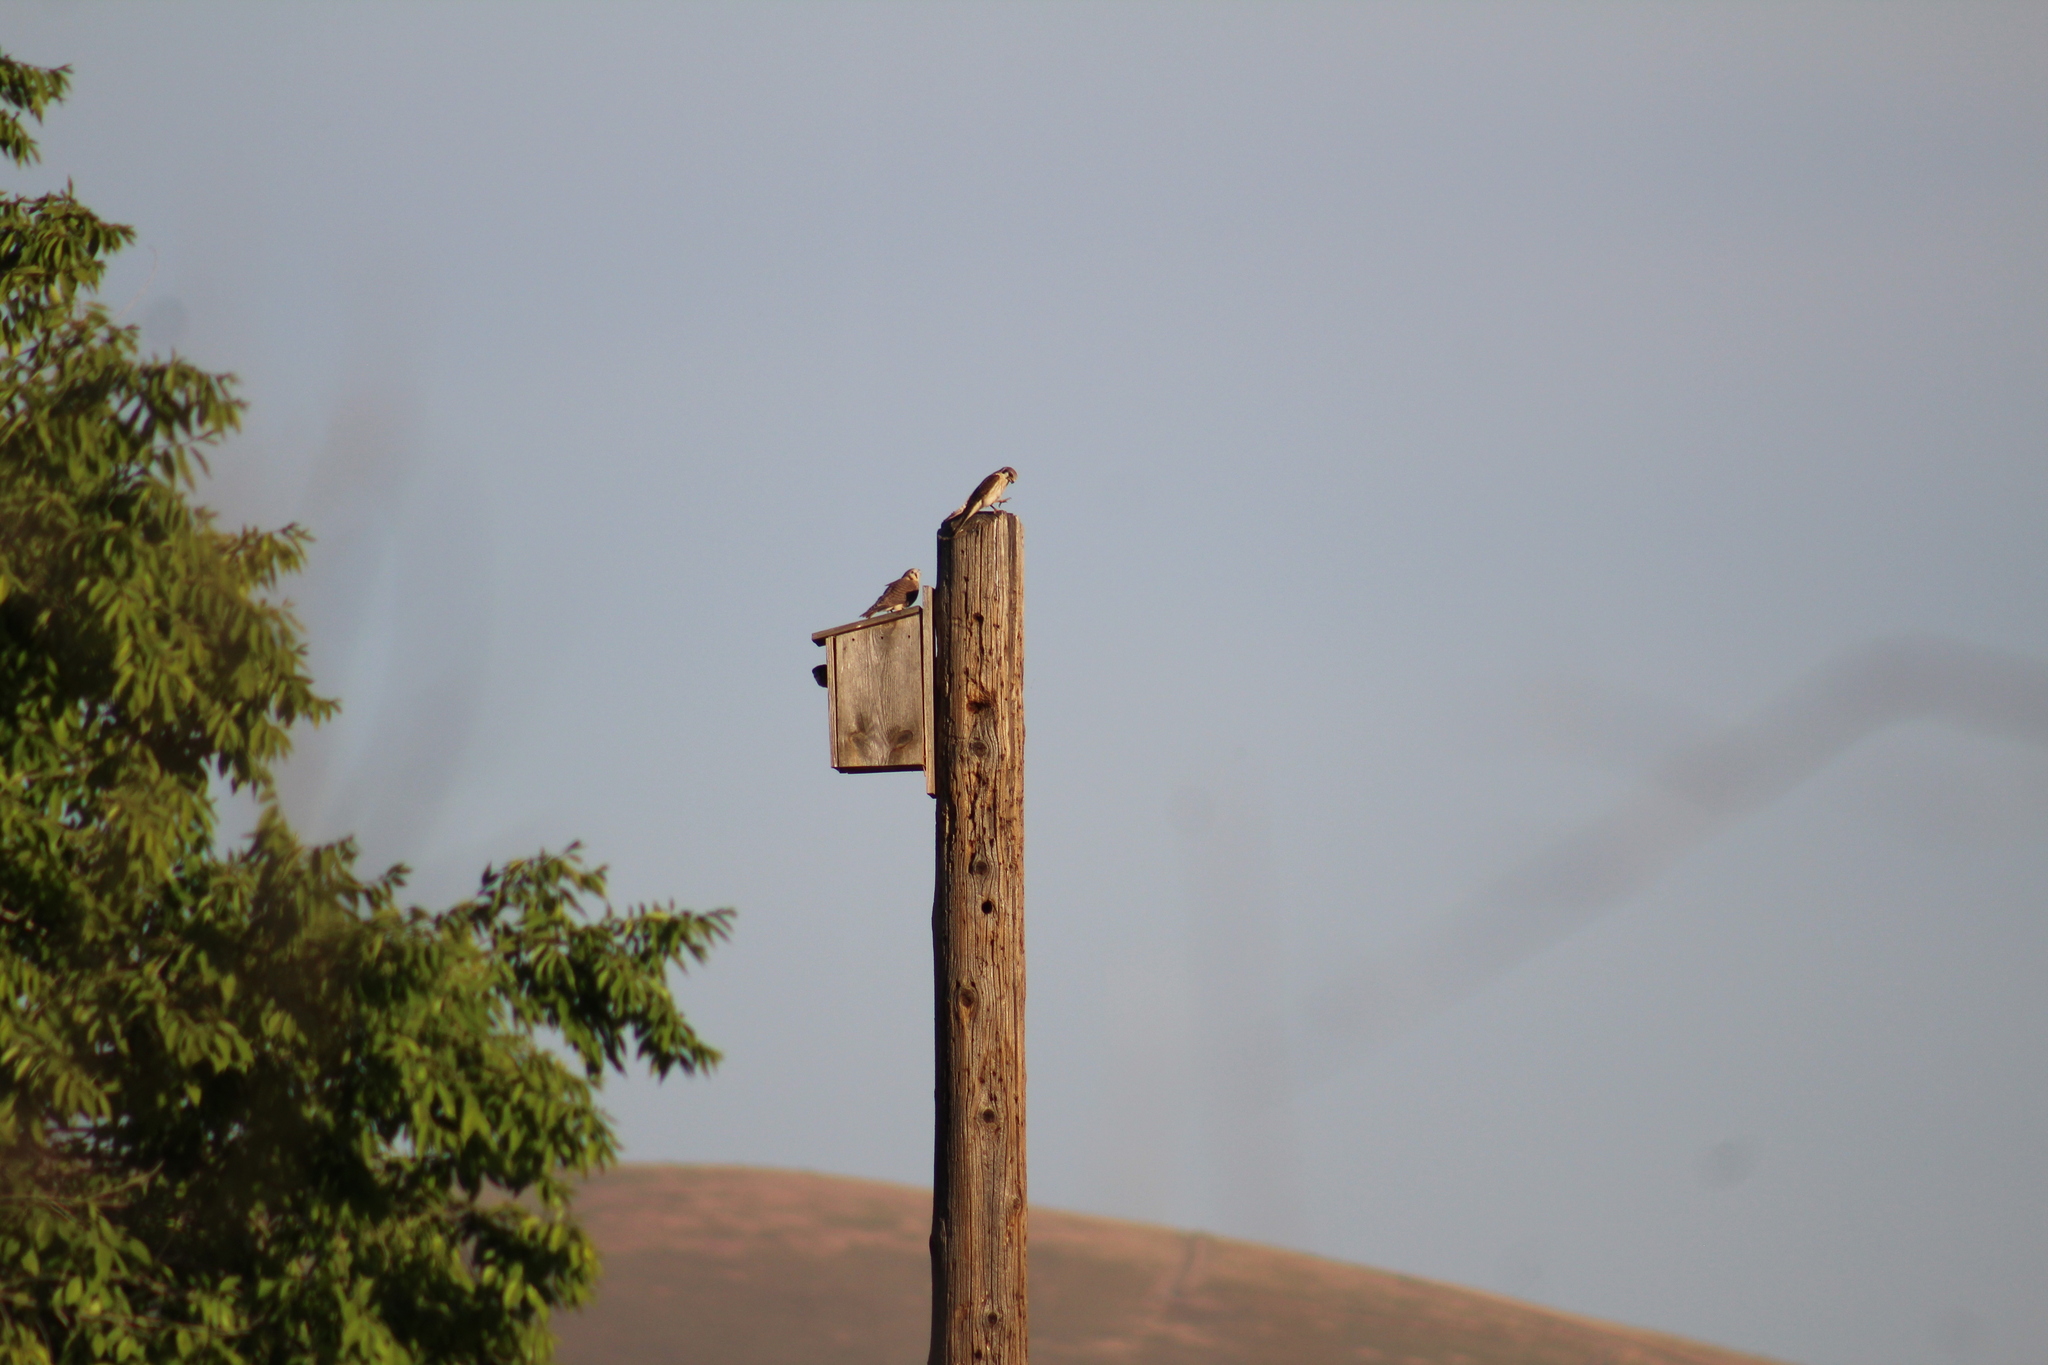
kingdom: Animalia
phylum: Chordata
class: Aves
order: Falconiformes
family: Falconidae
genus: Falco
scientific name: Falco sparverius
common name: American kestrel
